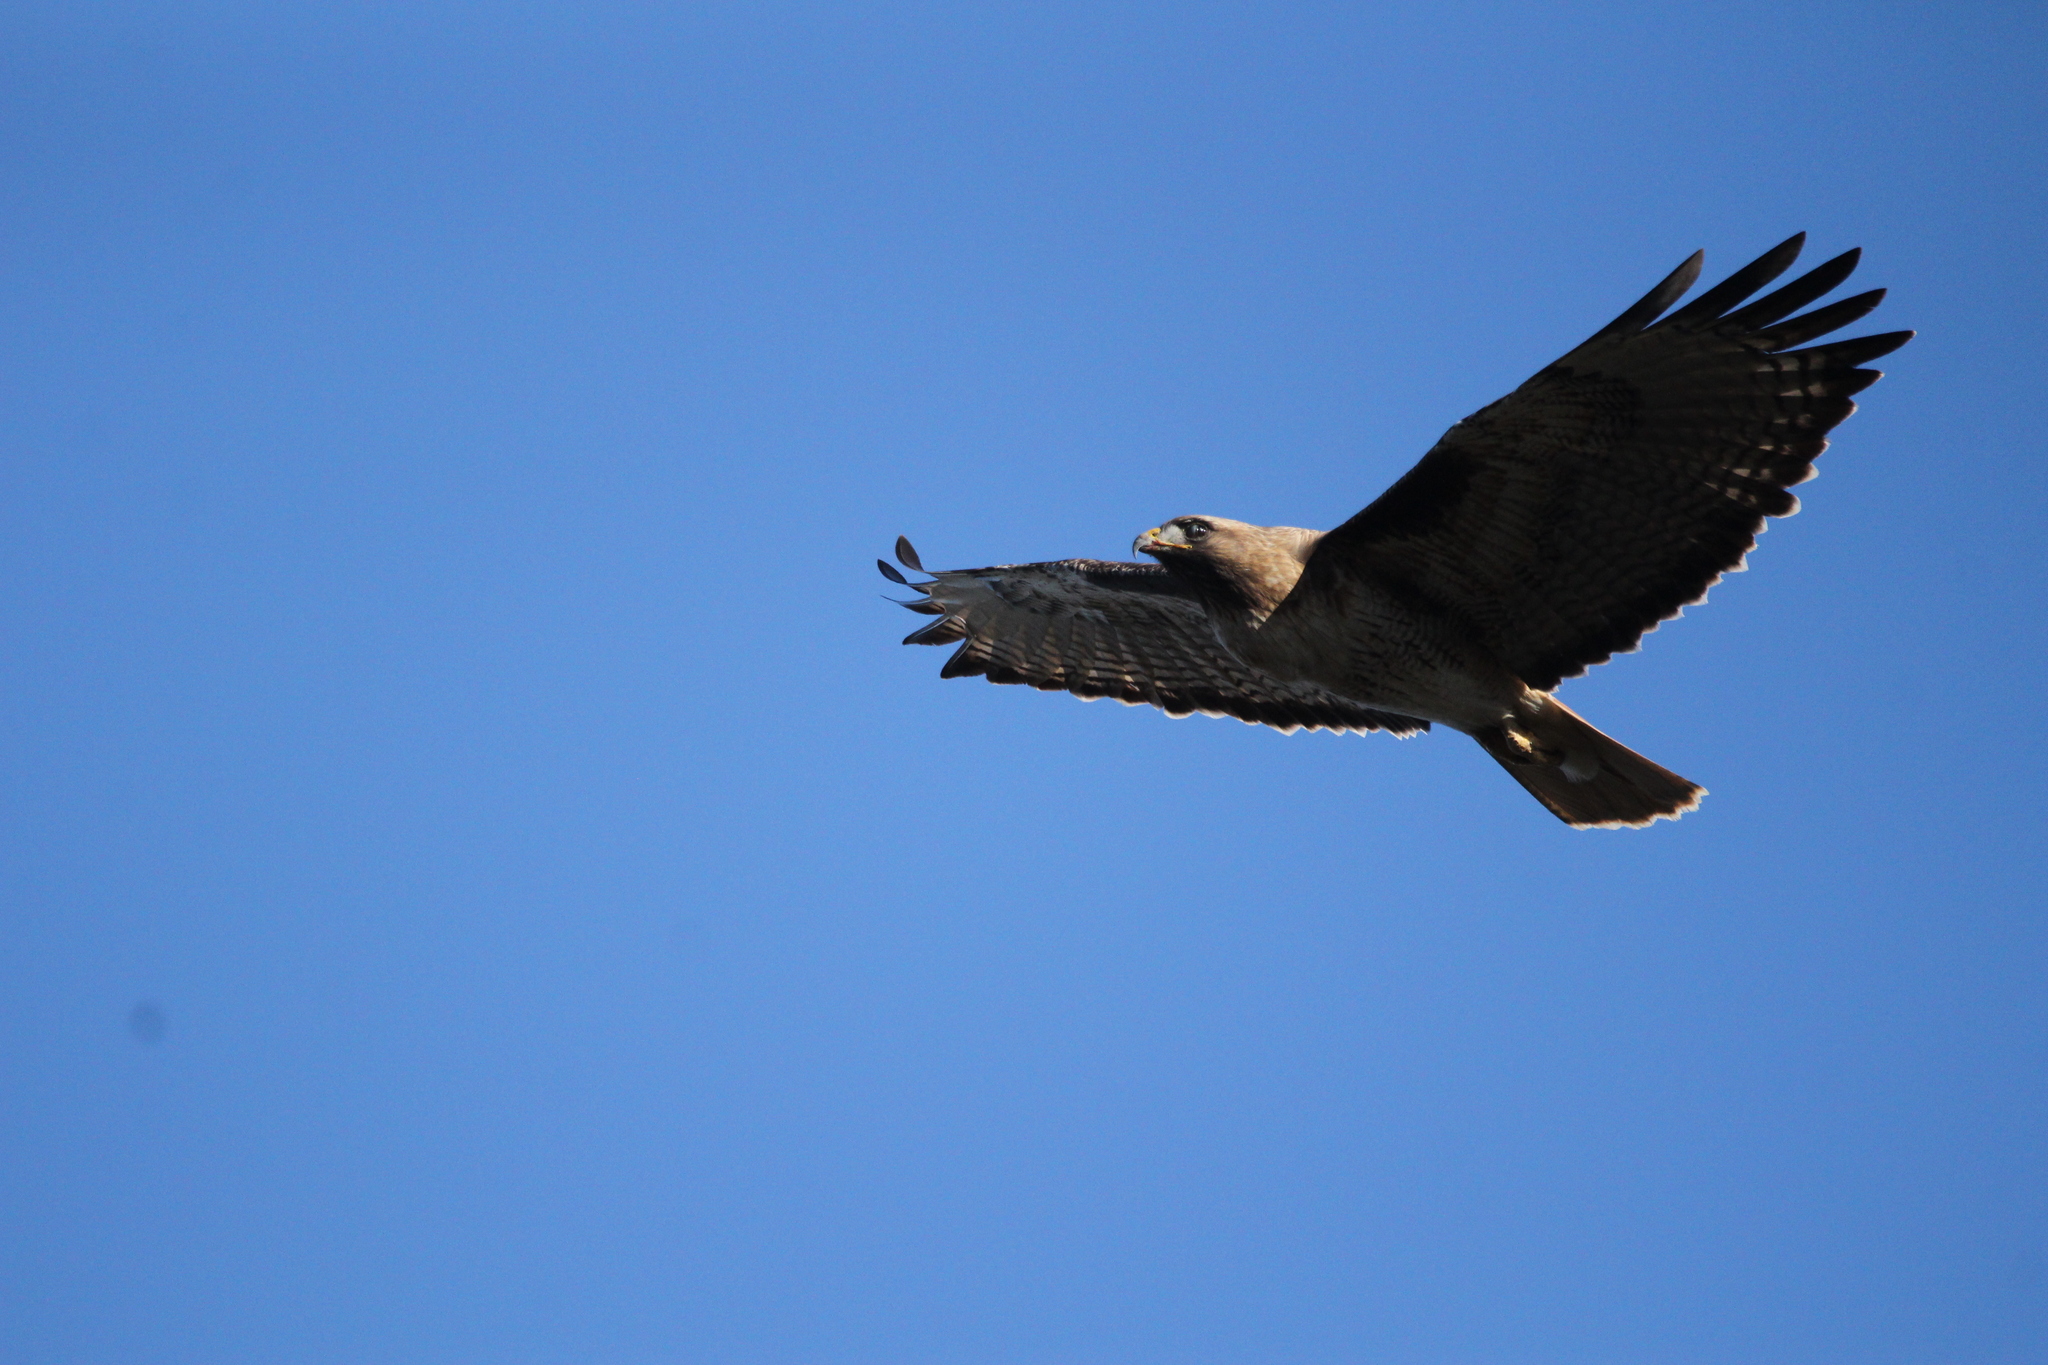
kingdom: Animalia
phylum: Chordata
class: Aves
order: Accipitriformes
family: Accipitridae
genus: Buteo
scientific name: Buteo jamaicensis
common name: Red-tailed hawk
